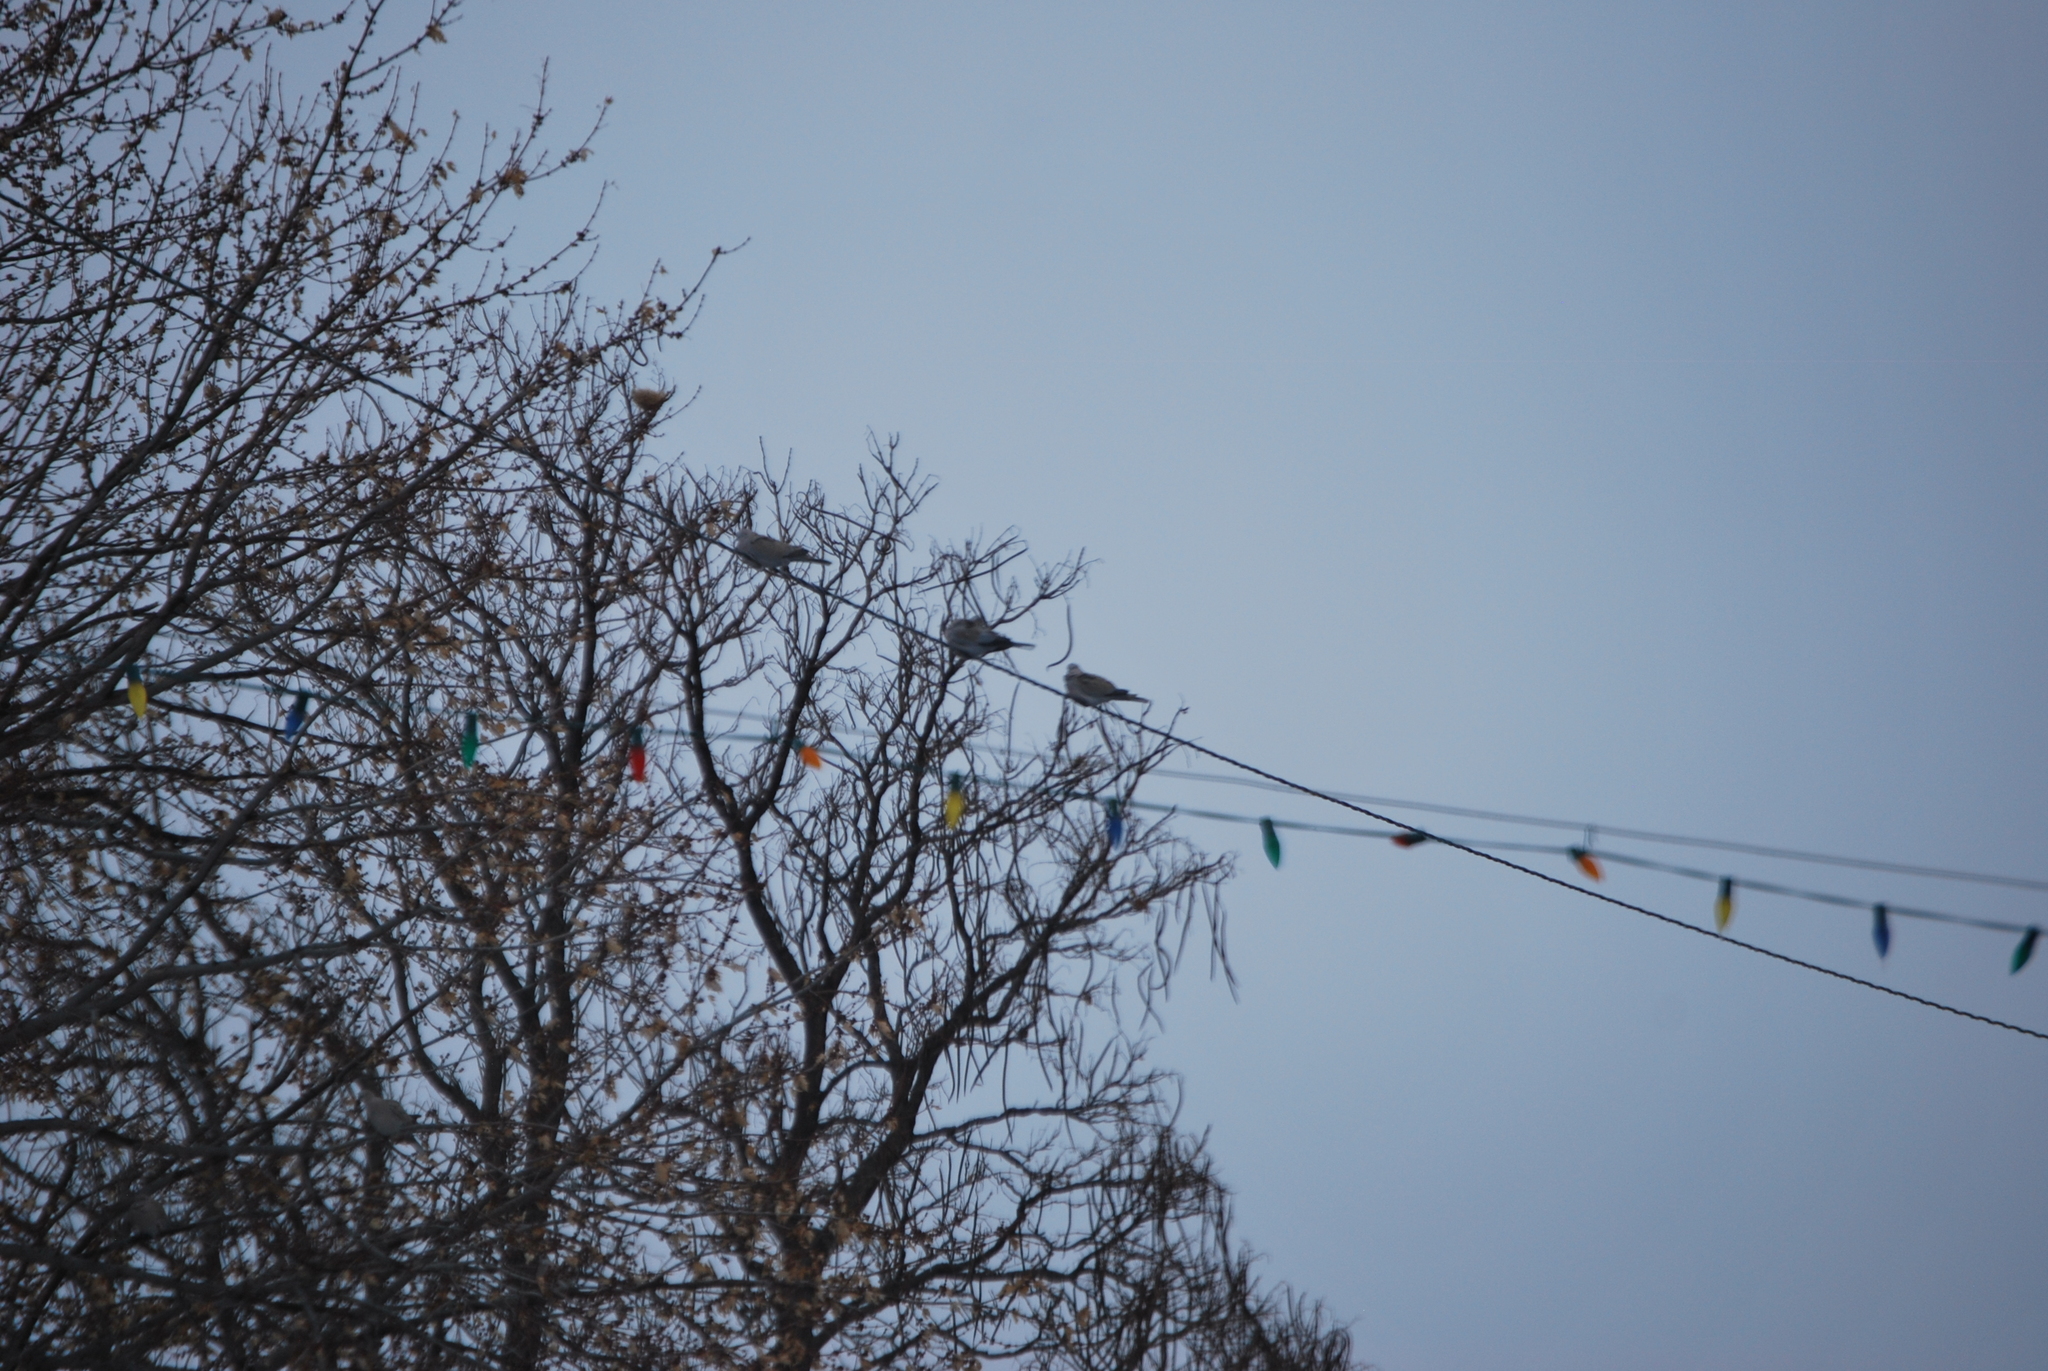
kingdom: Animalia
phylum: Chordata
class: Aves
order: Columbiformes
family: Columbidae
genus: Streptopelia
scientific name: Streptopelia decaocto
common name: Eurasian collared dove
